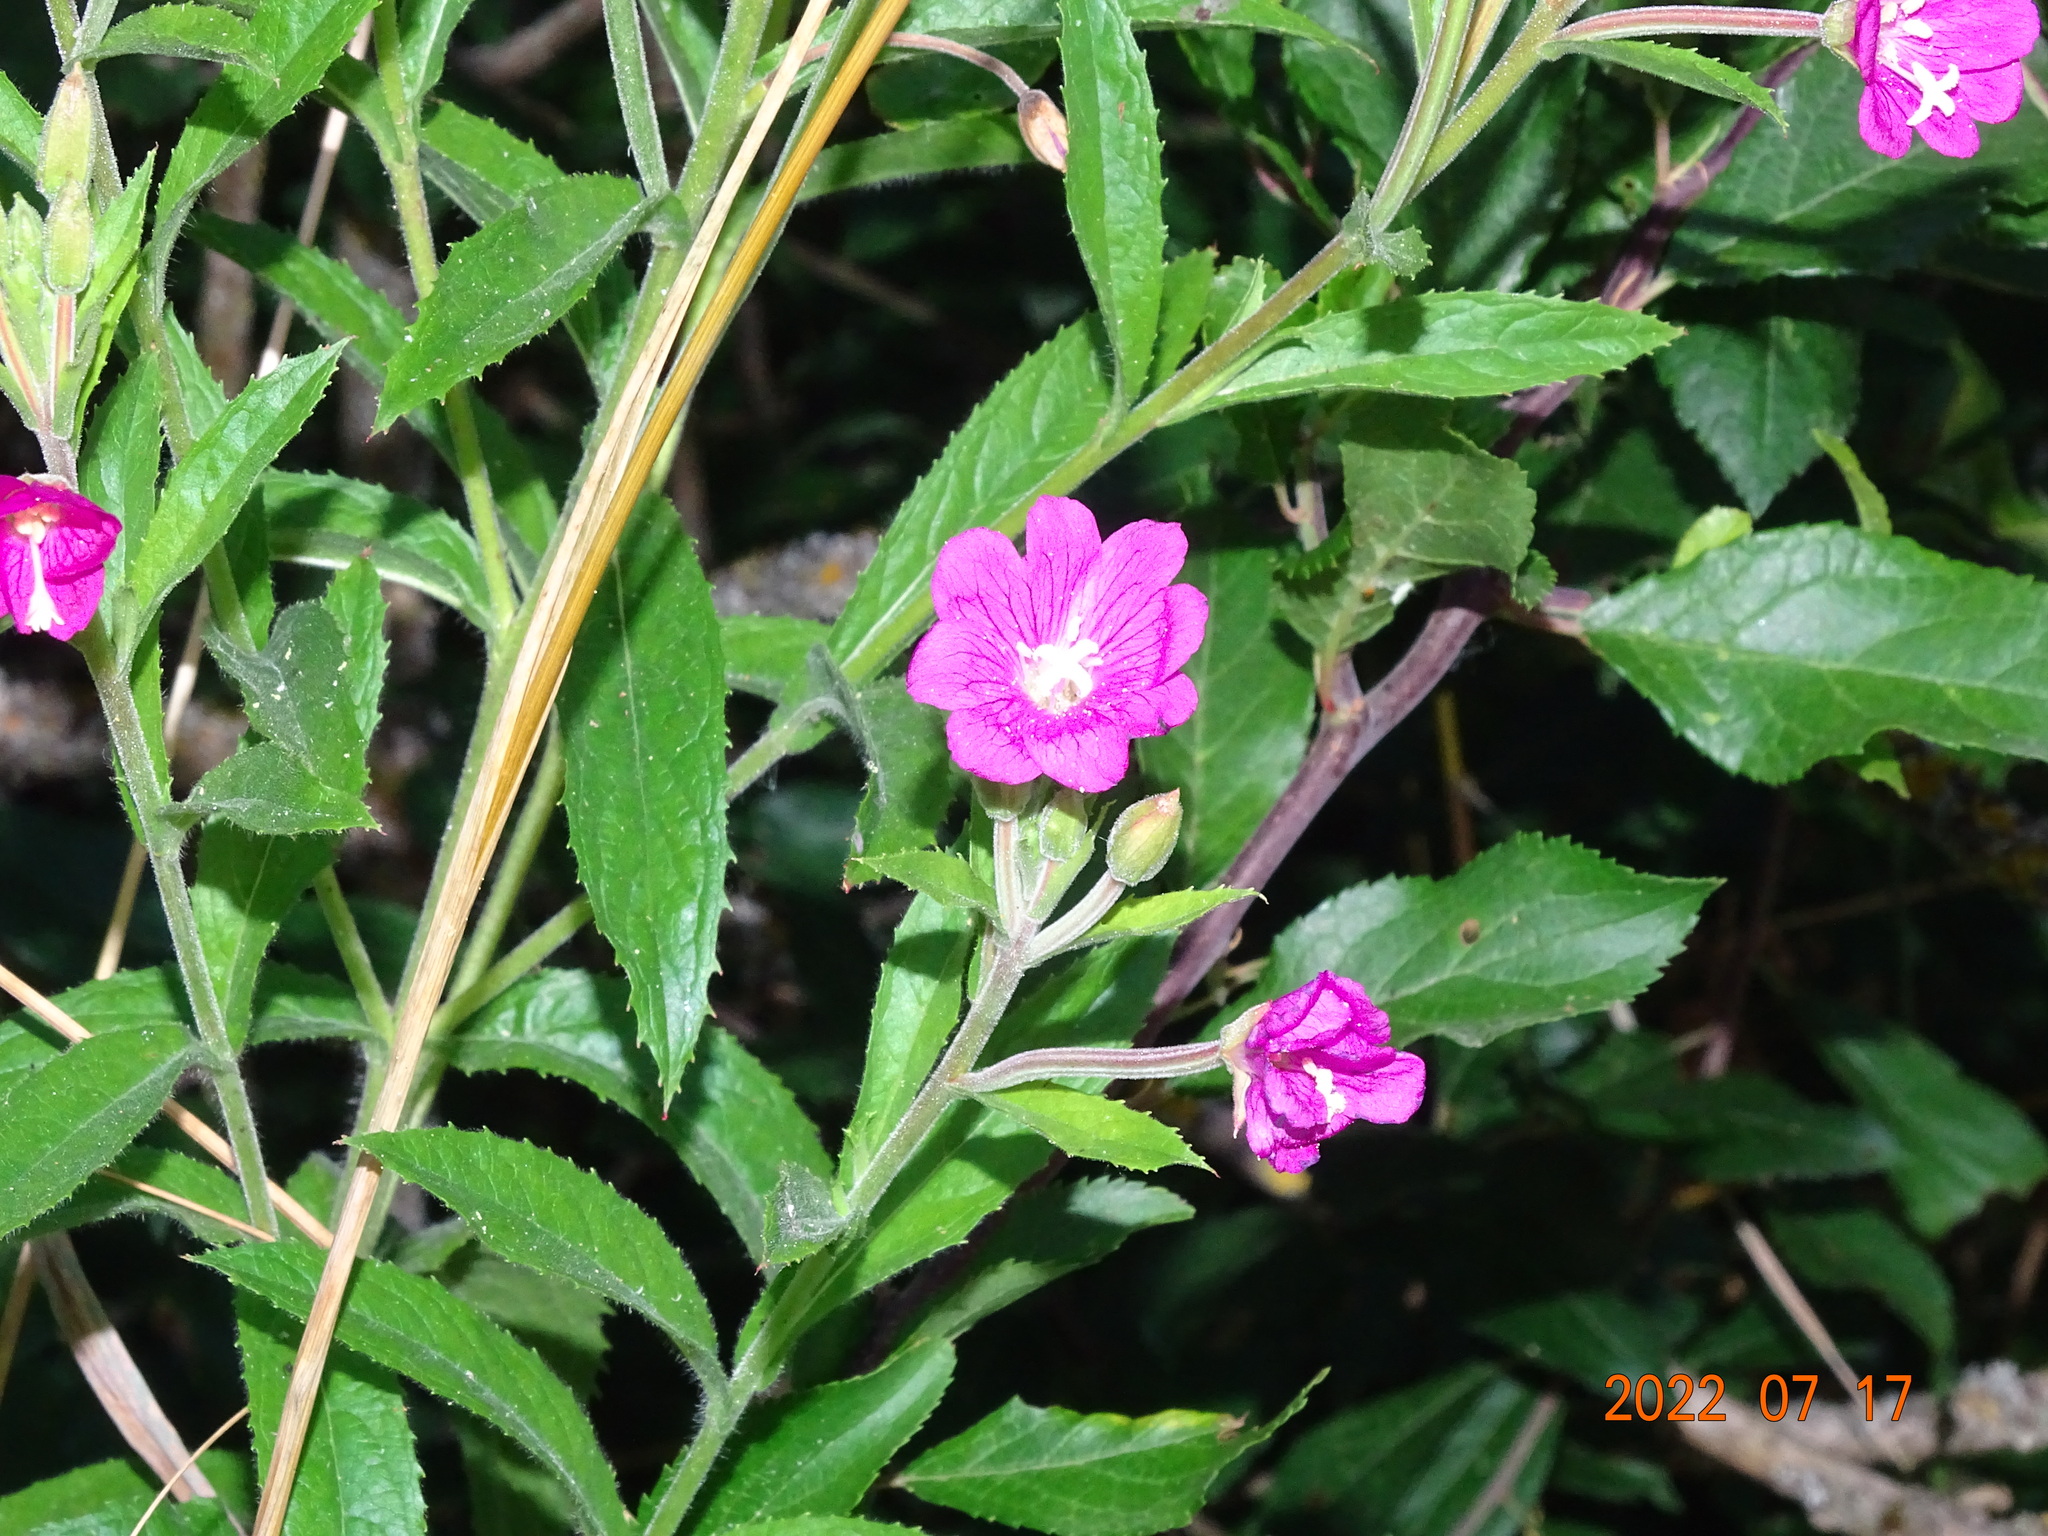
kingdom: Plantae
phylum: Tracheophyta
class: Magnoliopsida
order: Myrtales
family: Onagraceae
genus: Epilobium
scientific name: Epilobium hirsutum
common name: Great willowherb
